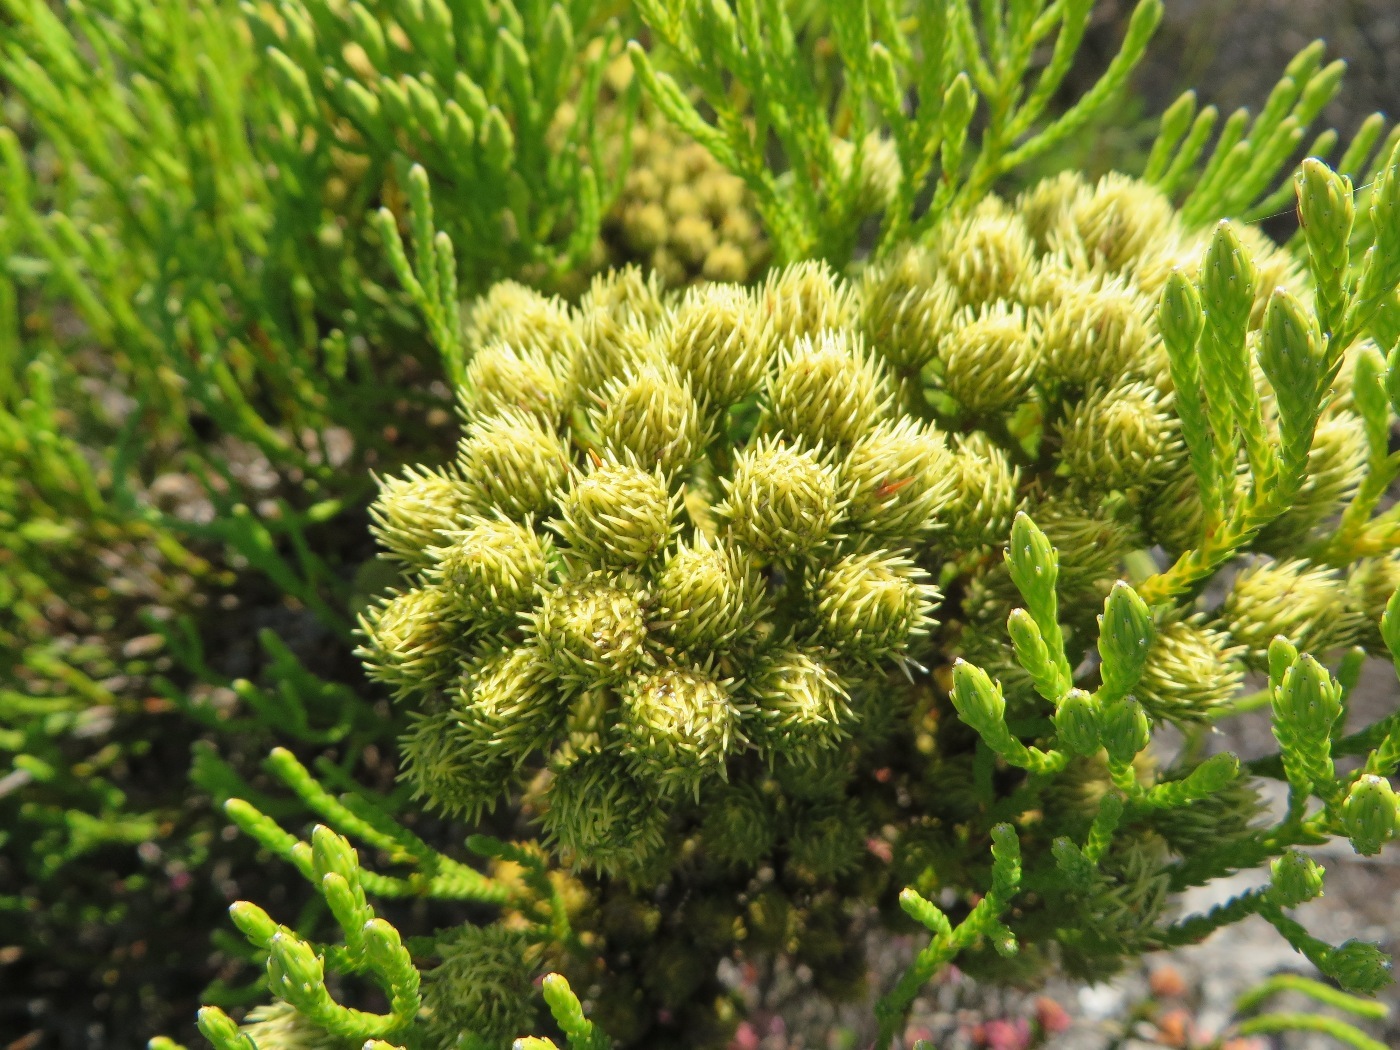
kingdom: Plantae
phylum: Tracheophyta
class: Magnoliopsida
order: Bruniales
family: Bruniaceae
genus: Brunia
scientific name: Brunia paleacea
